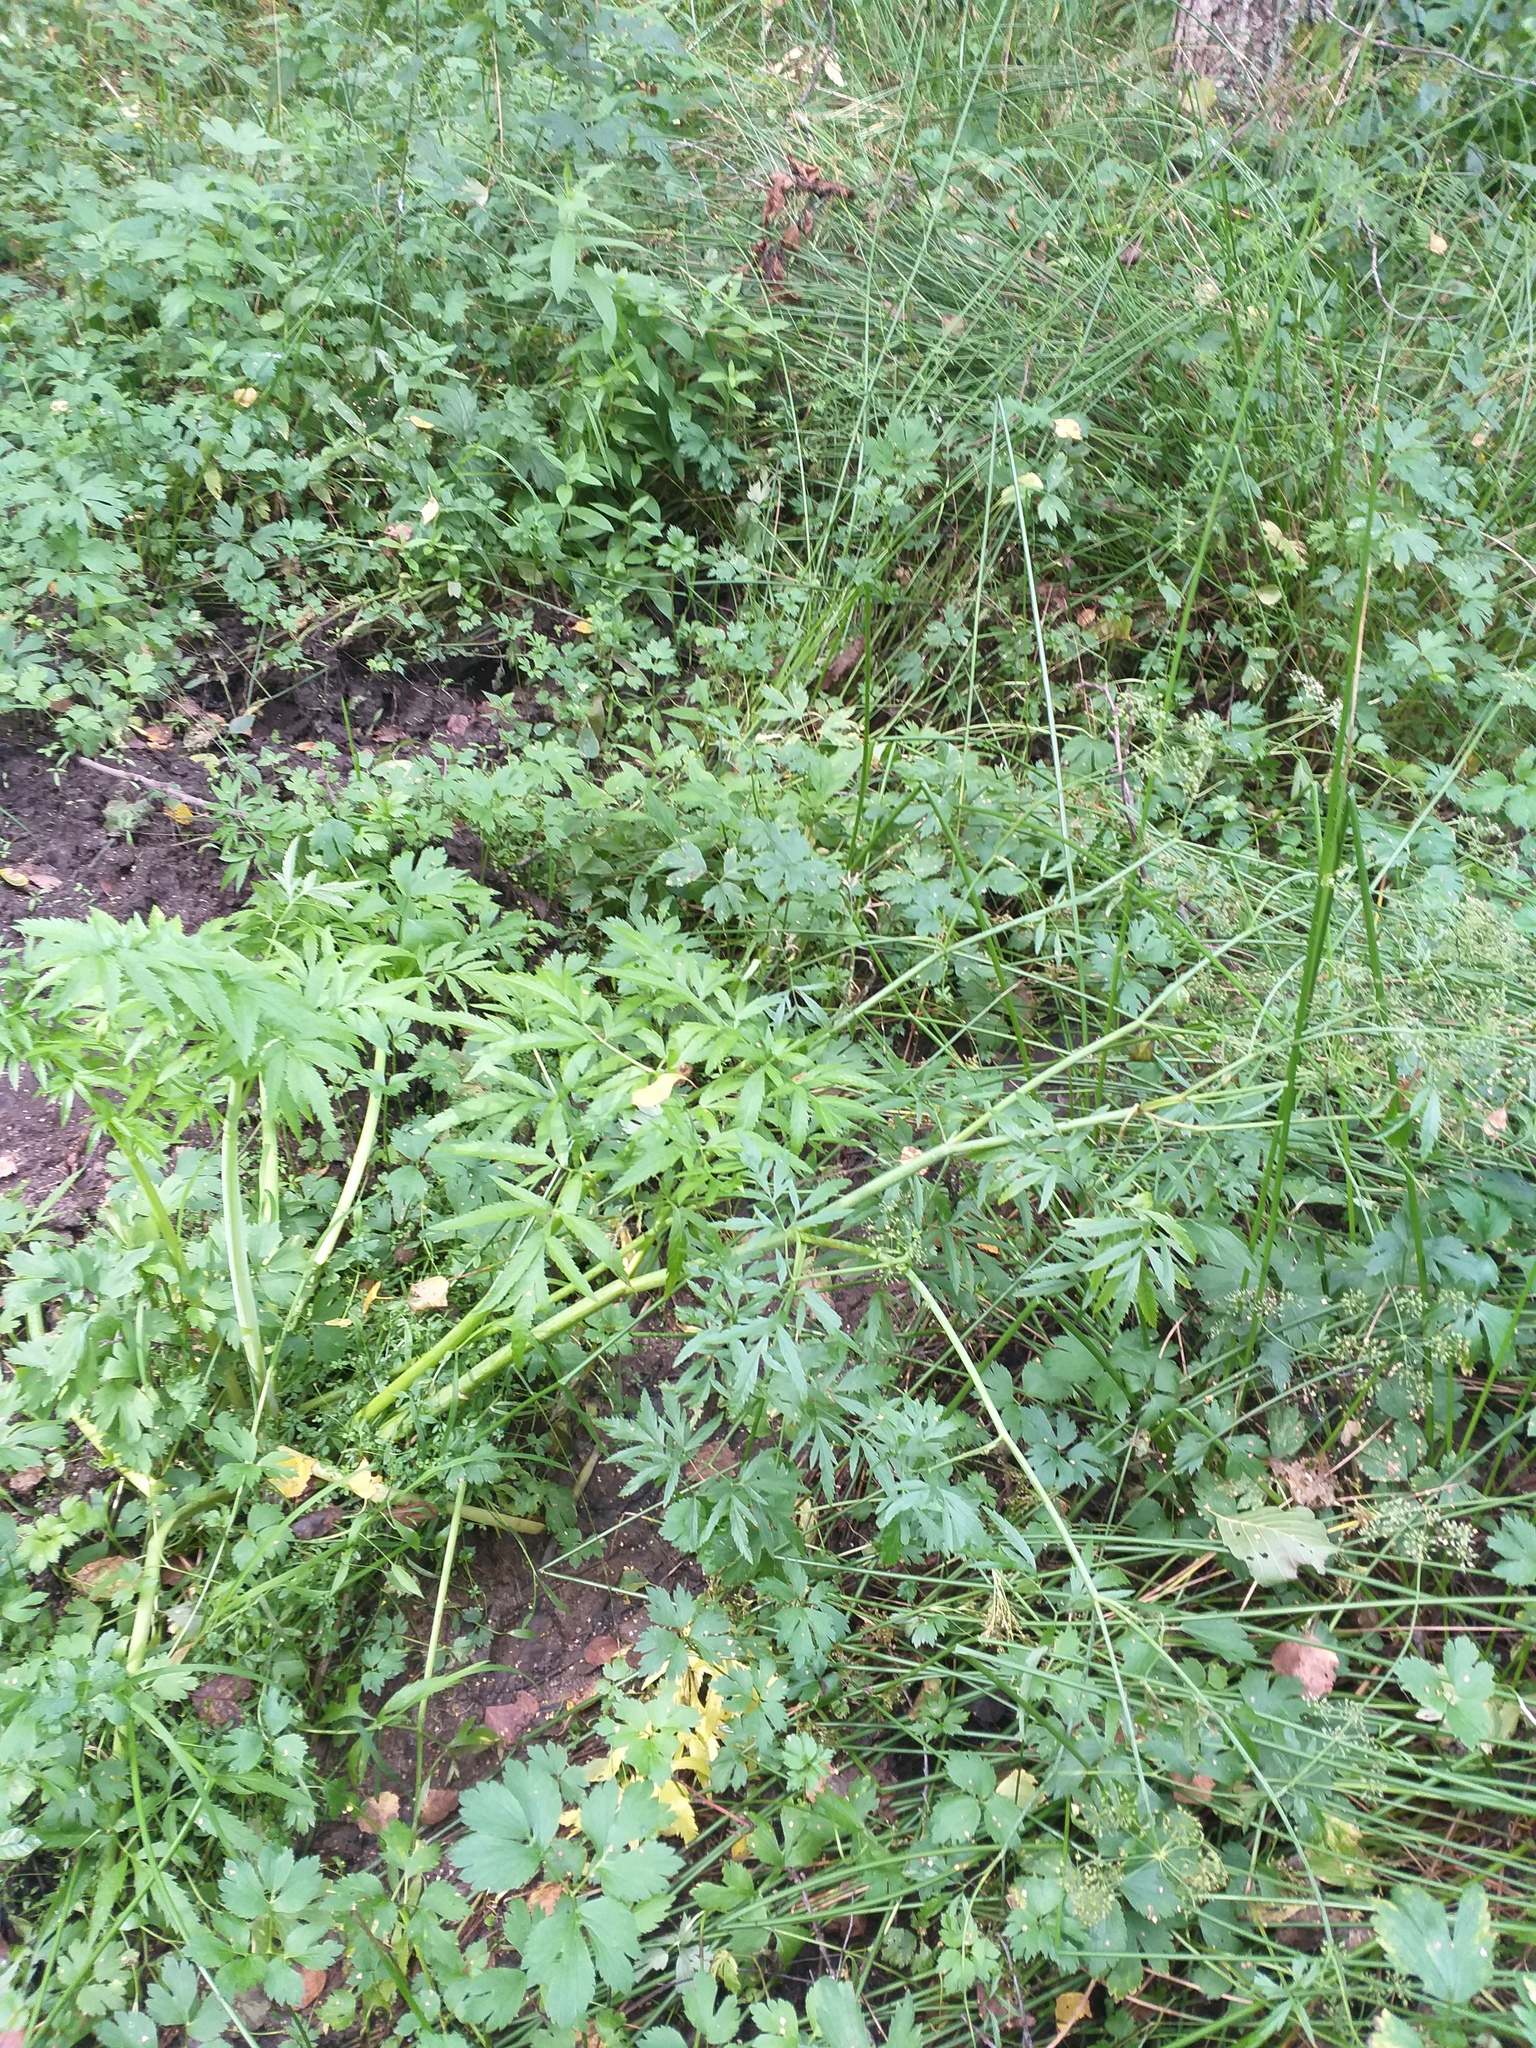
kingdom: Plantae
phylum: Tracheophyta
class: Magnoliopsida
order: Apiales
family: Apiaceae
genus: Cicuta
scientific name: Cicuta virosa
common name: Cowbane
